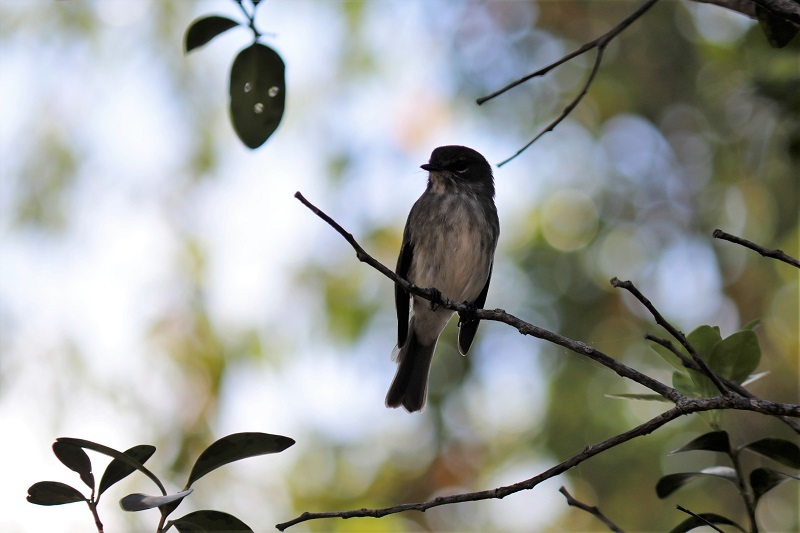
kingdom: Animalia
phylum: Chordata
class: Aves
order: Passeriformes
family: Muscicapidae
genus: Muscicapa
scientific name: Muscicapa adusta
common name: African dusky flycatcher
